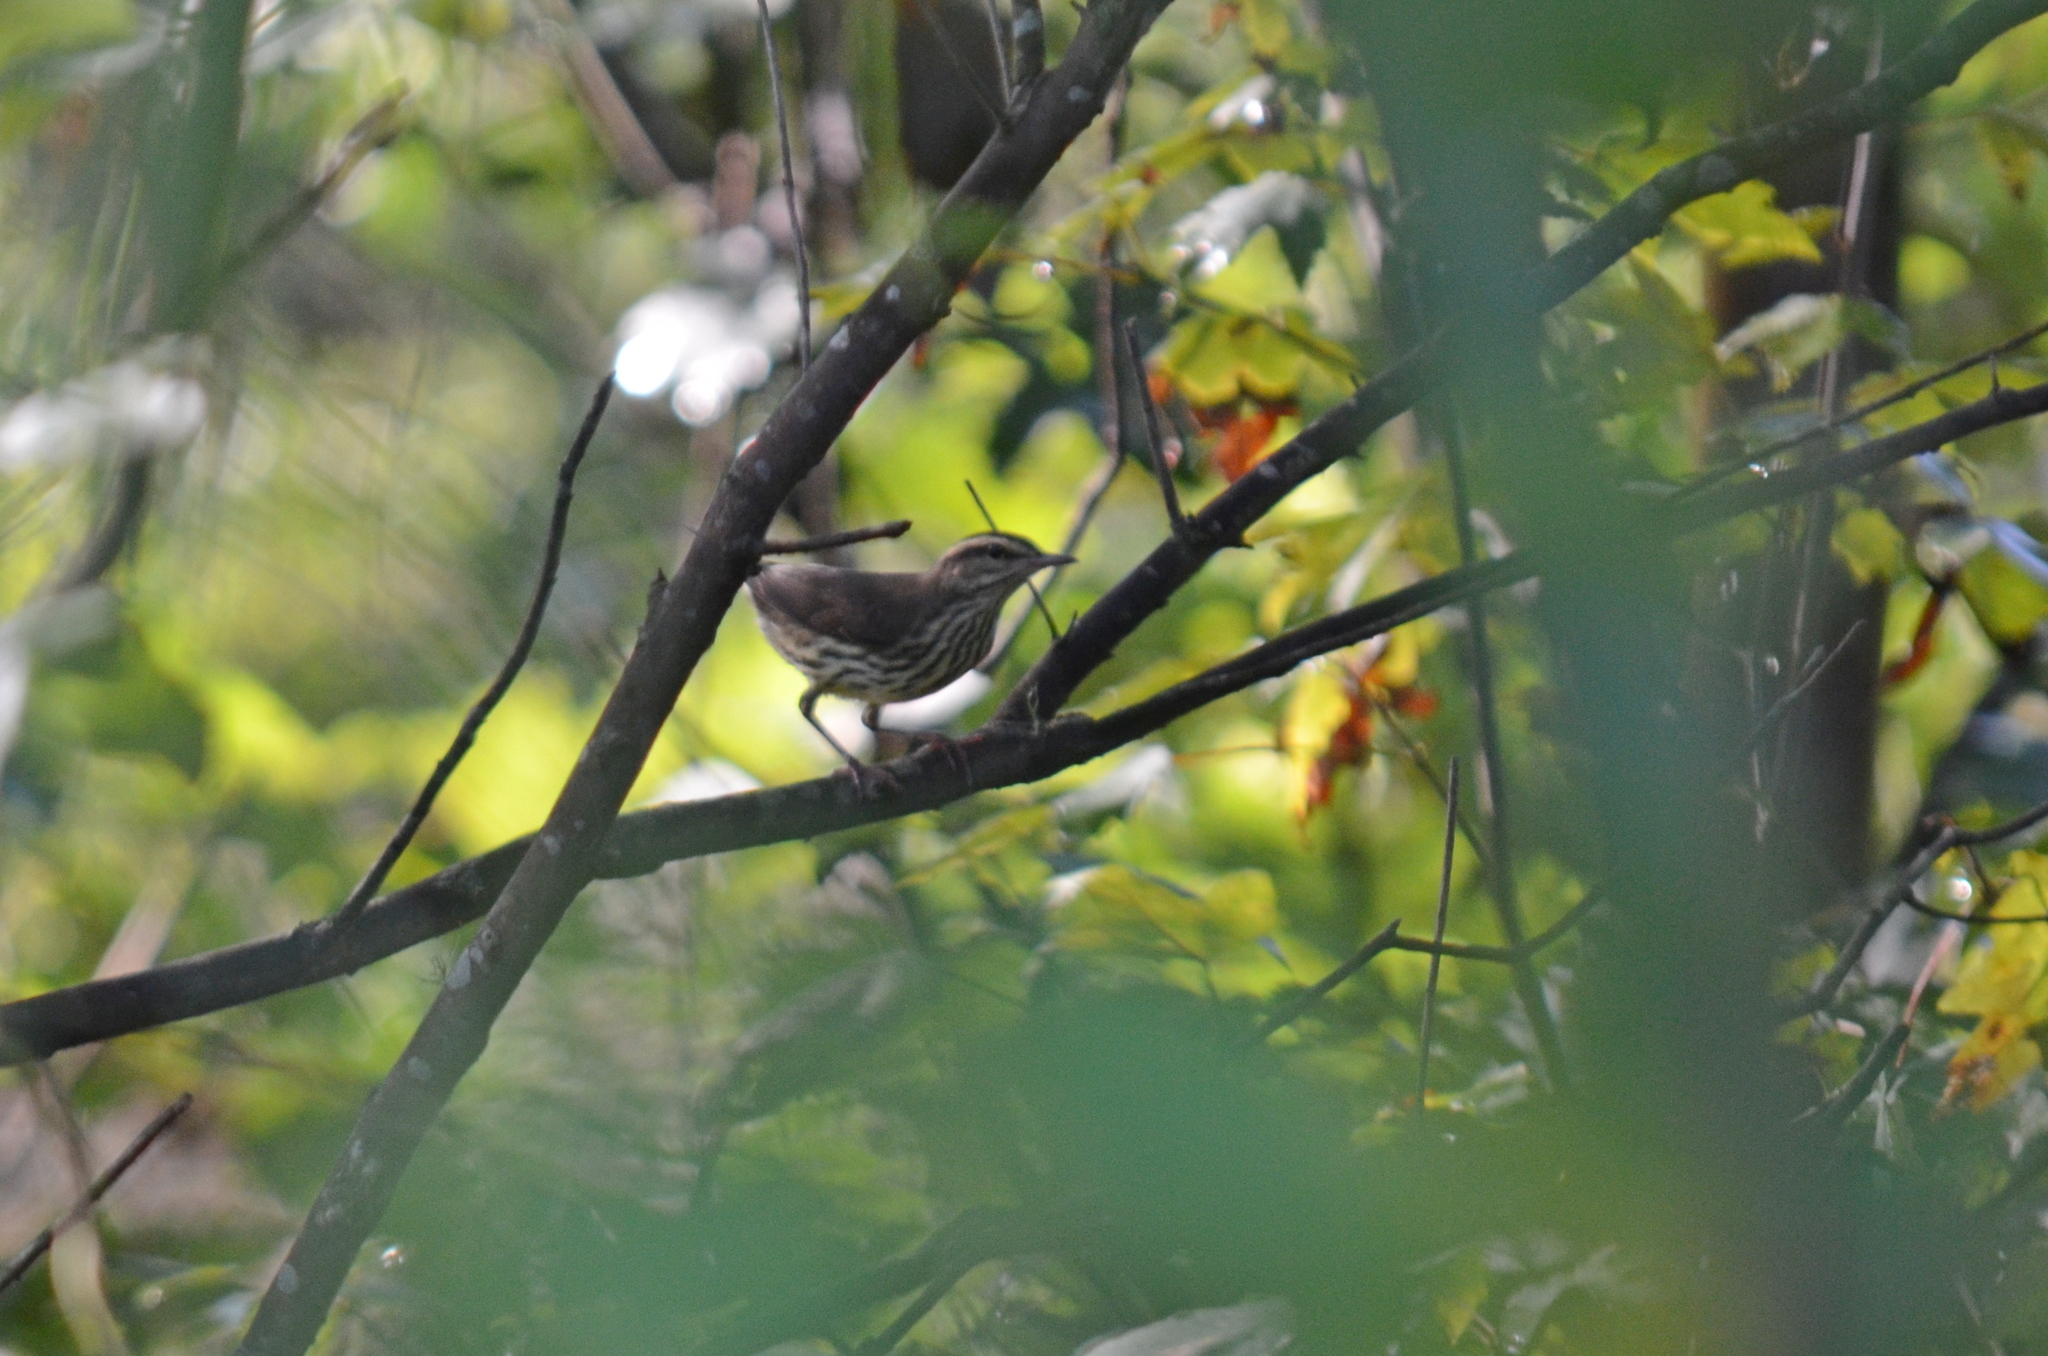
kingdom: Animalia
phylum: Chordata
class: Aves
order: Passeriformes
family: Parulidae
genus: Parkesia
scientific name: Parkesia noveboracensis
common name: Northern waterthrush
